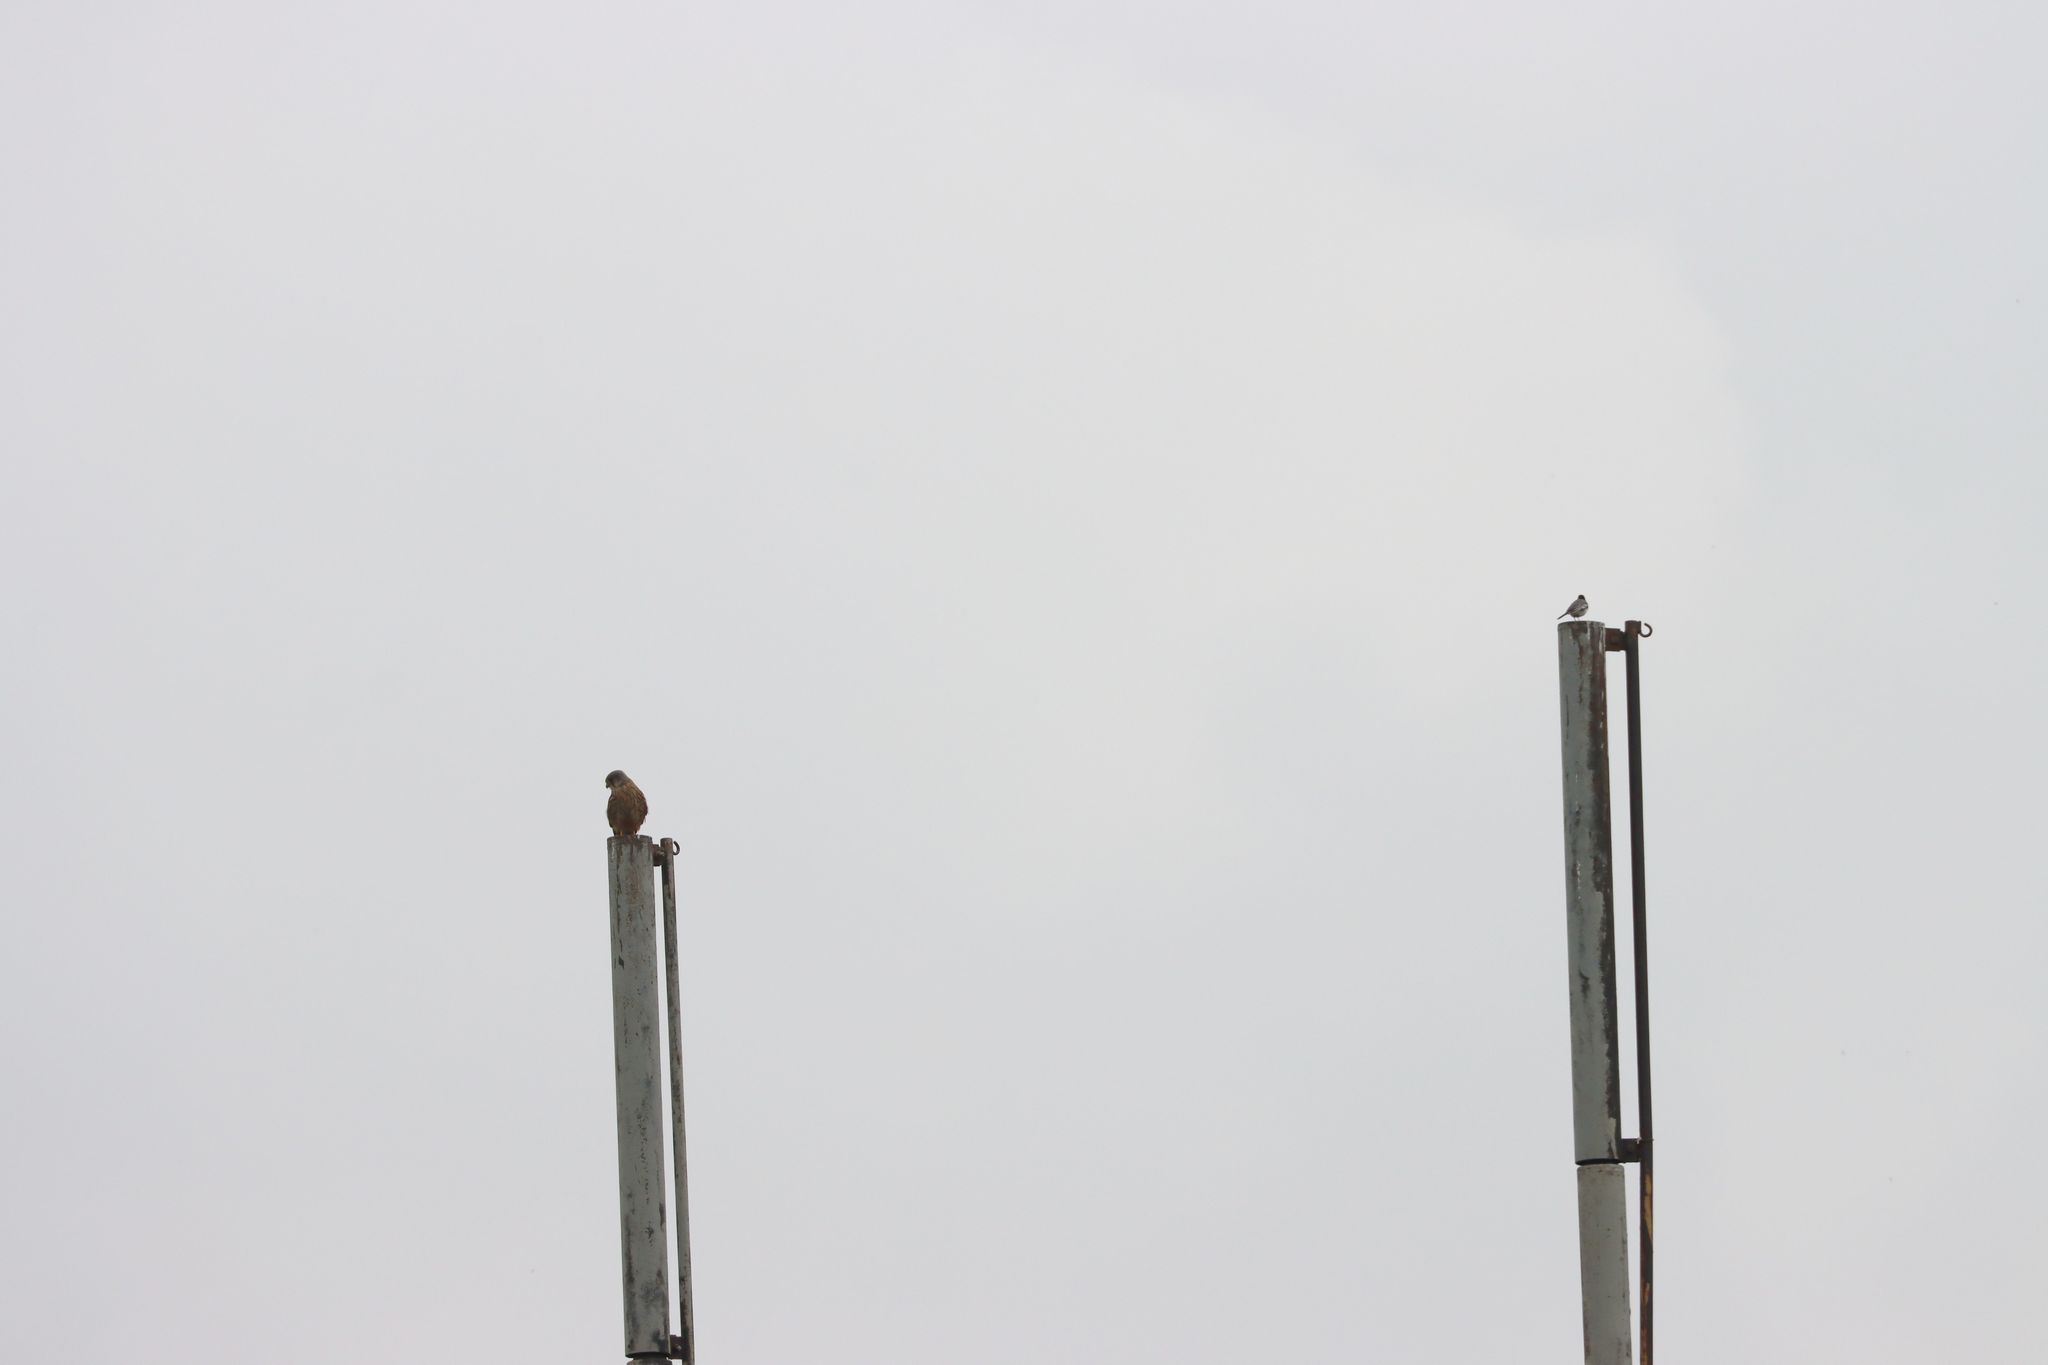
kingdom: Animalia
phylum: Chordata
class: Aves
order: Falconiformes
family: Falconidae
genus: Falco
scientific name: Falco tinnunculus
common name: Common kestrel
